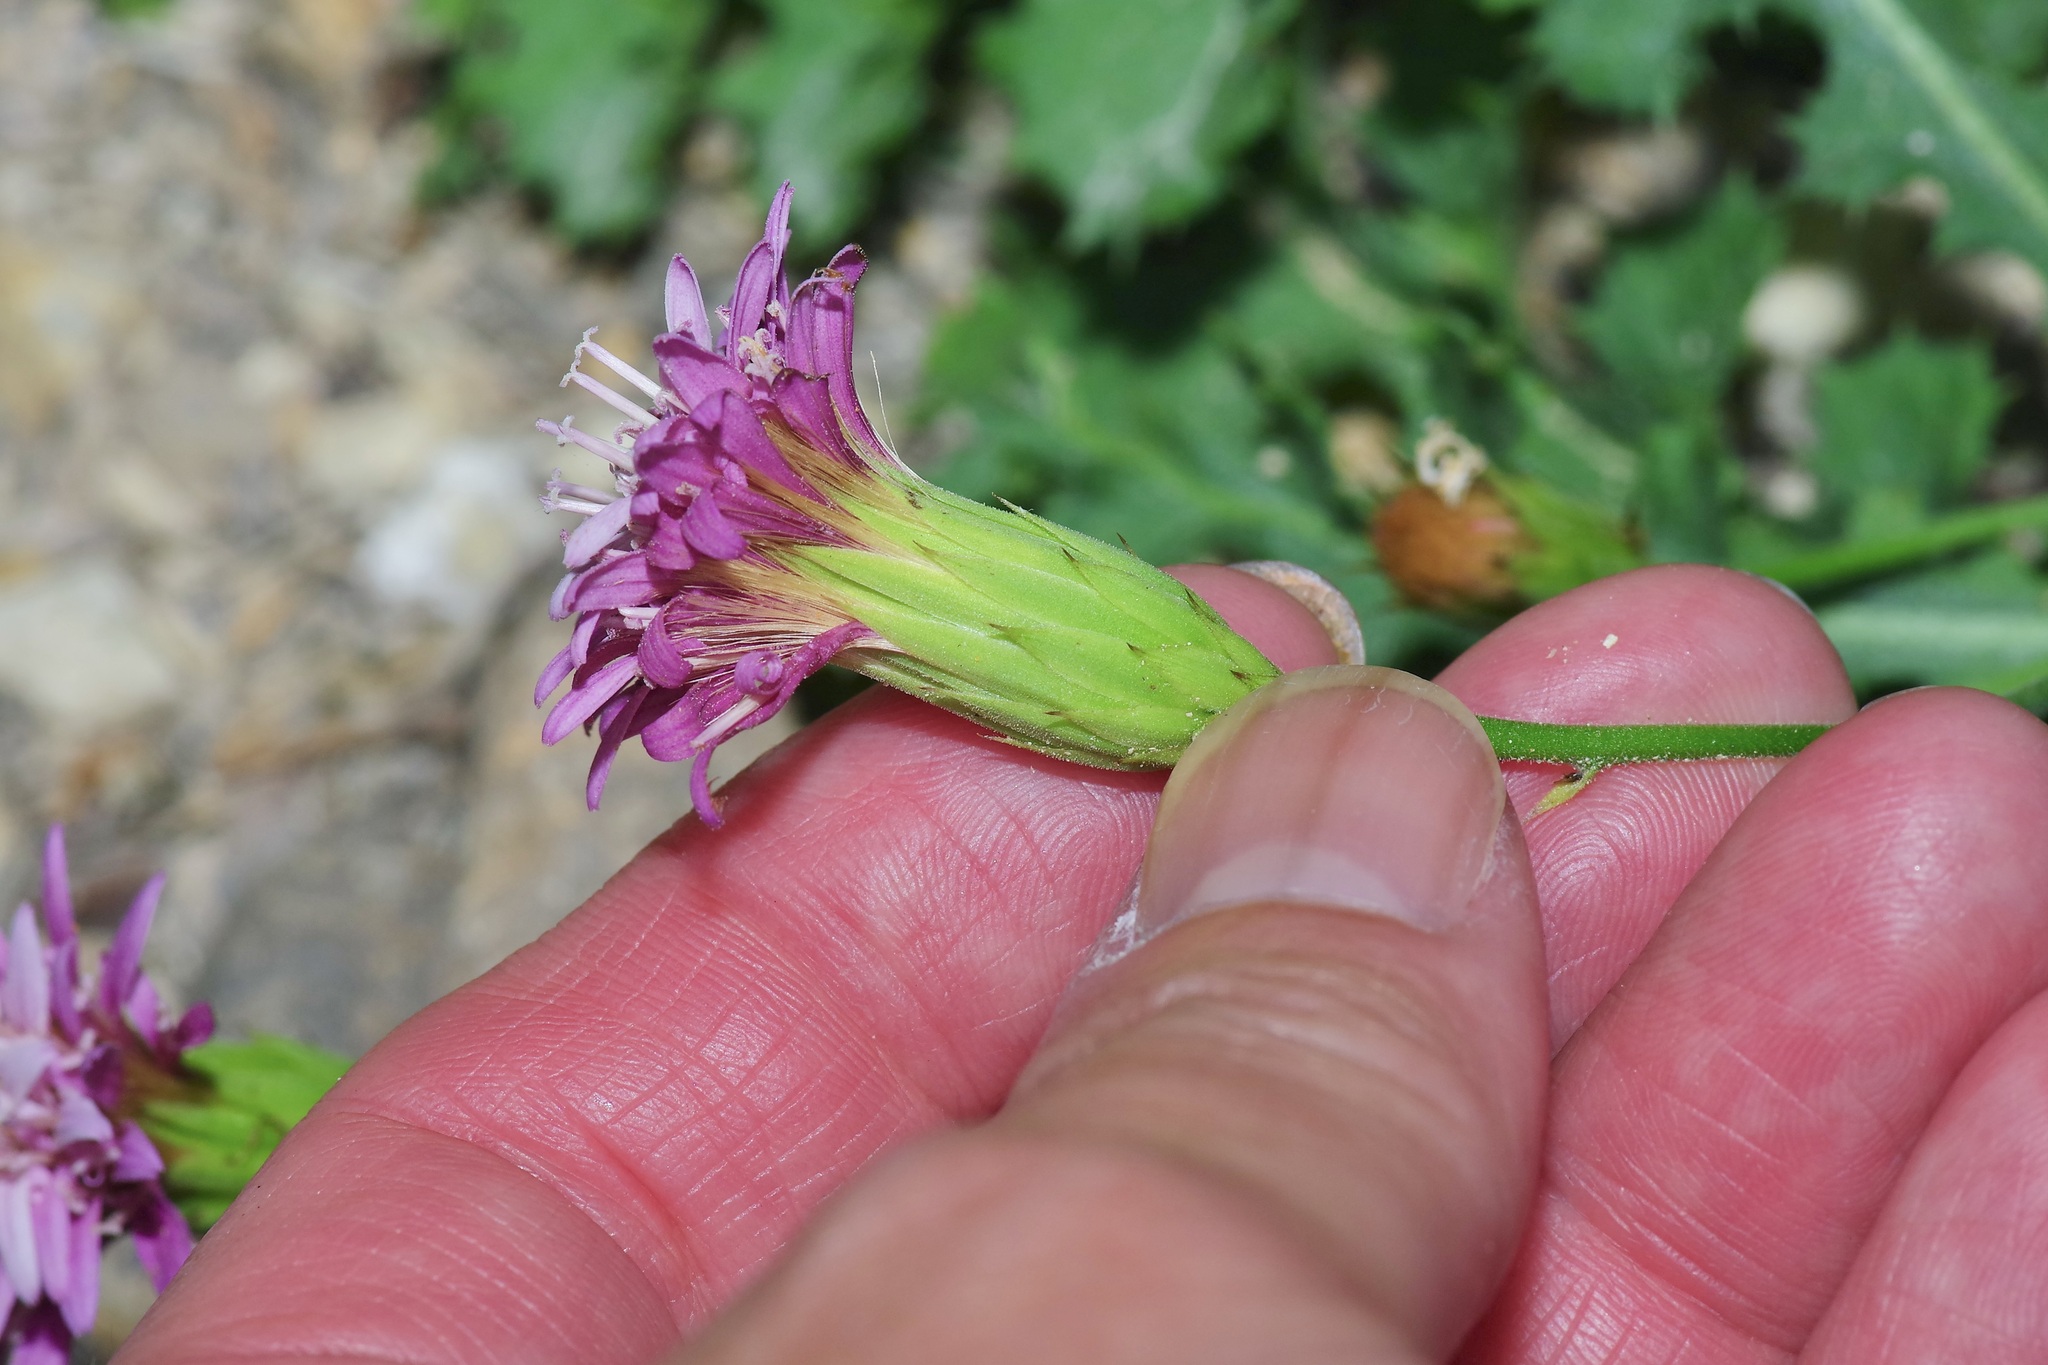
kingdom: Plantae
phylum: Tracheophyta
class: Magnoliopsida
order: Asterales
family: Asteraceae
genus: Acourtia
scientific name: Acourtia runcinata
